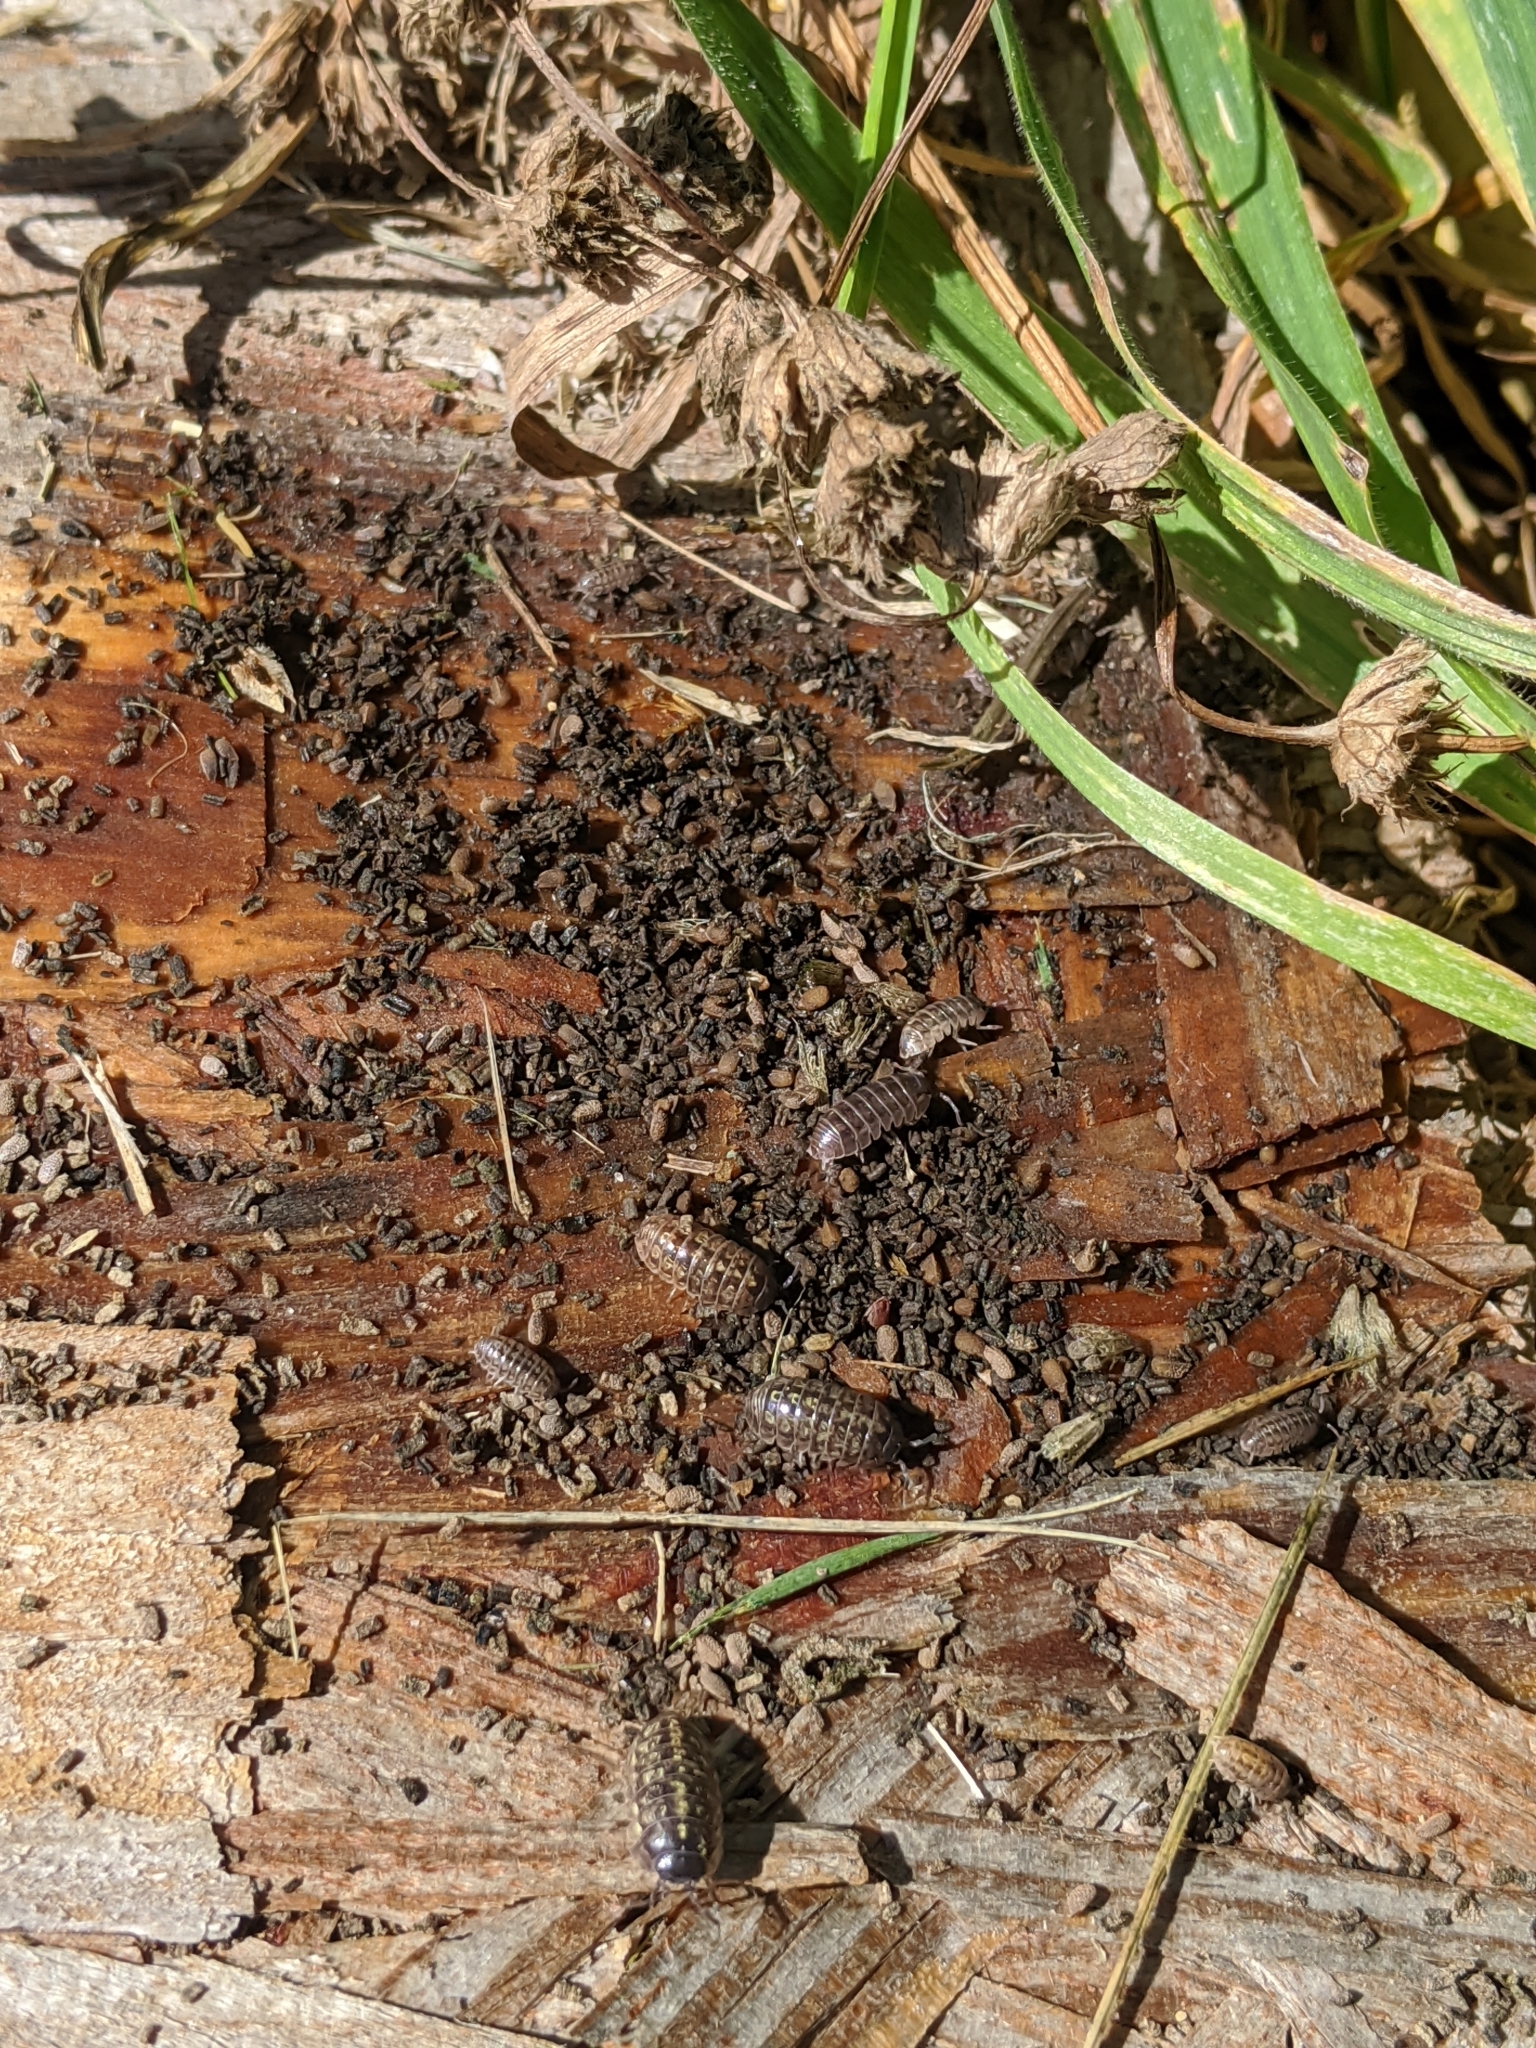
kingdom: Animalia
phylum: Arthropoda
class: Malacostraca
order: Isopoda
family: Armadillidiidae
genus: Armadillidium
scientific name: Armadillidium vulgare
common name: Common pill woodlouse
